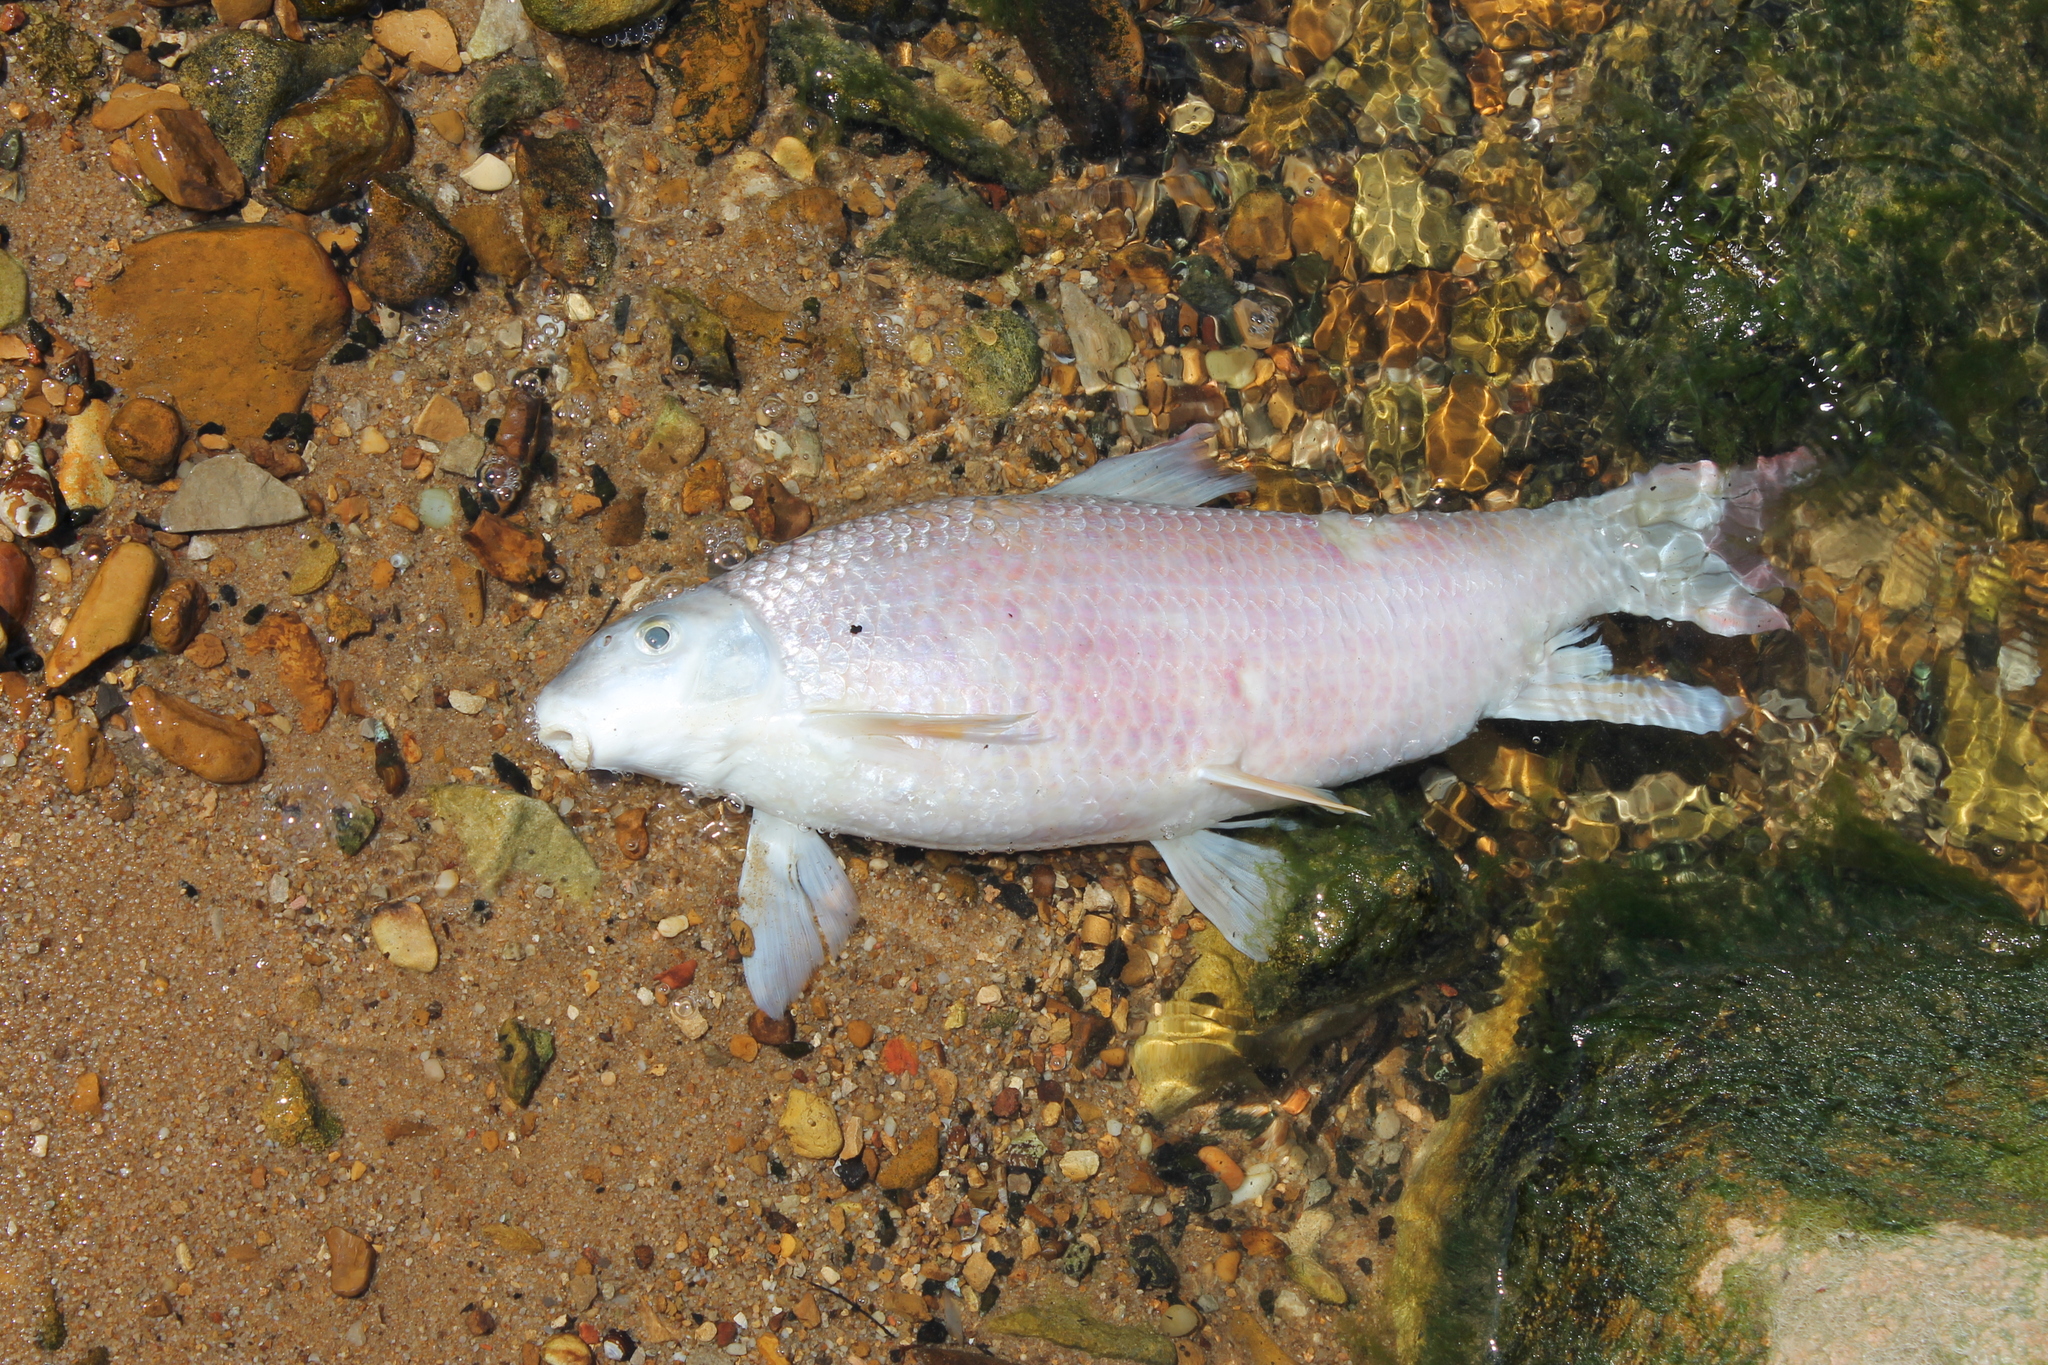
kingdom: Animalia
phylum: Chordata
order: Cypriniformes
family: Catostomidae
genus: Moxostoma
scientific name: Moxostoma breviceps
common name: Smallmouth redhorse
